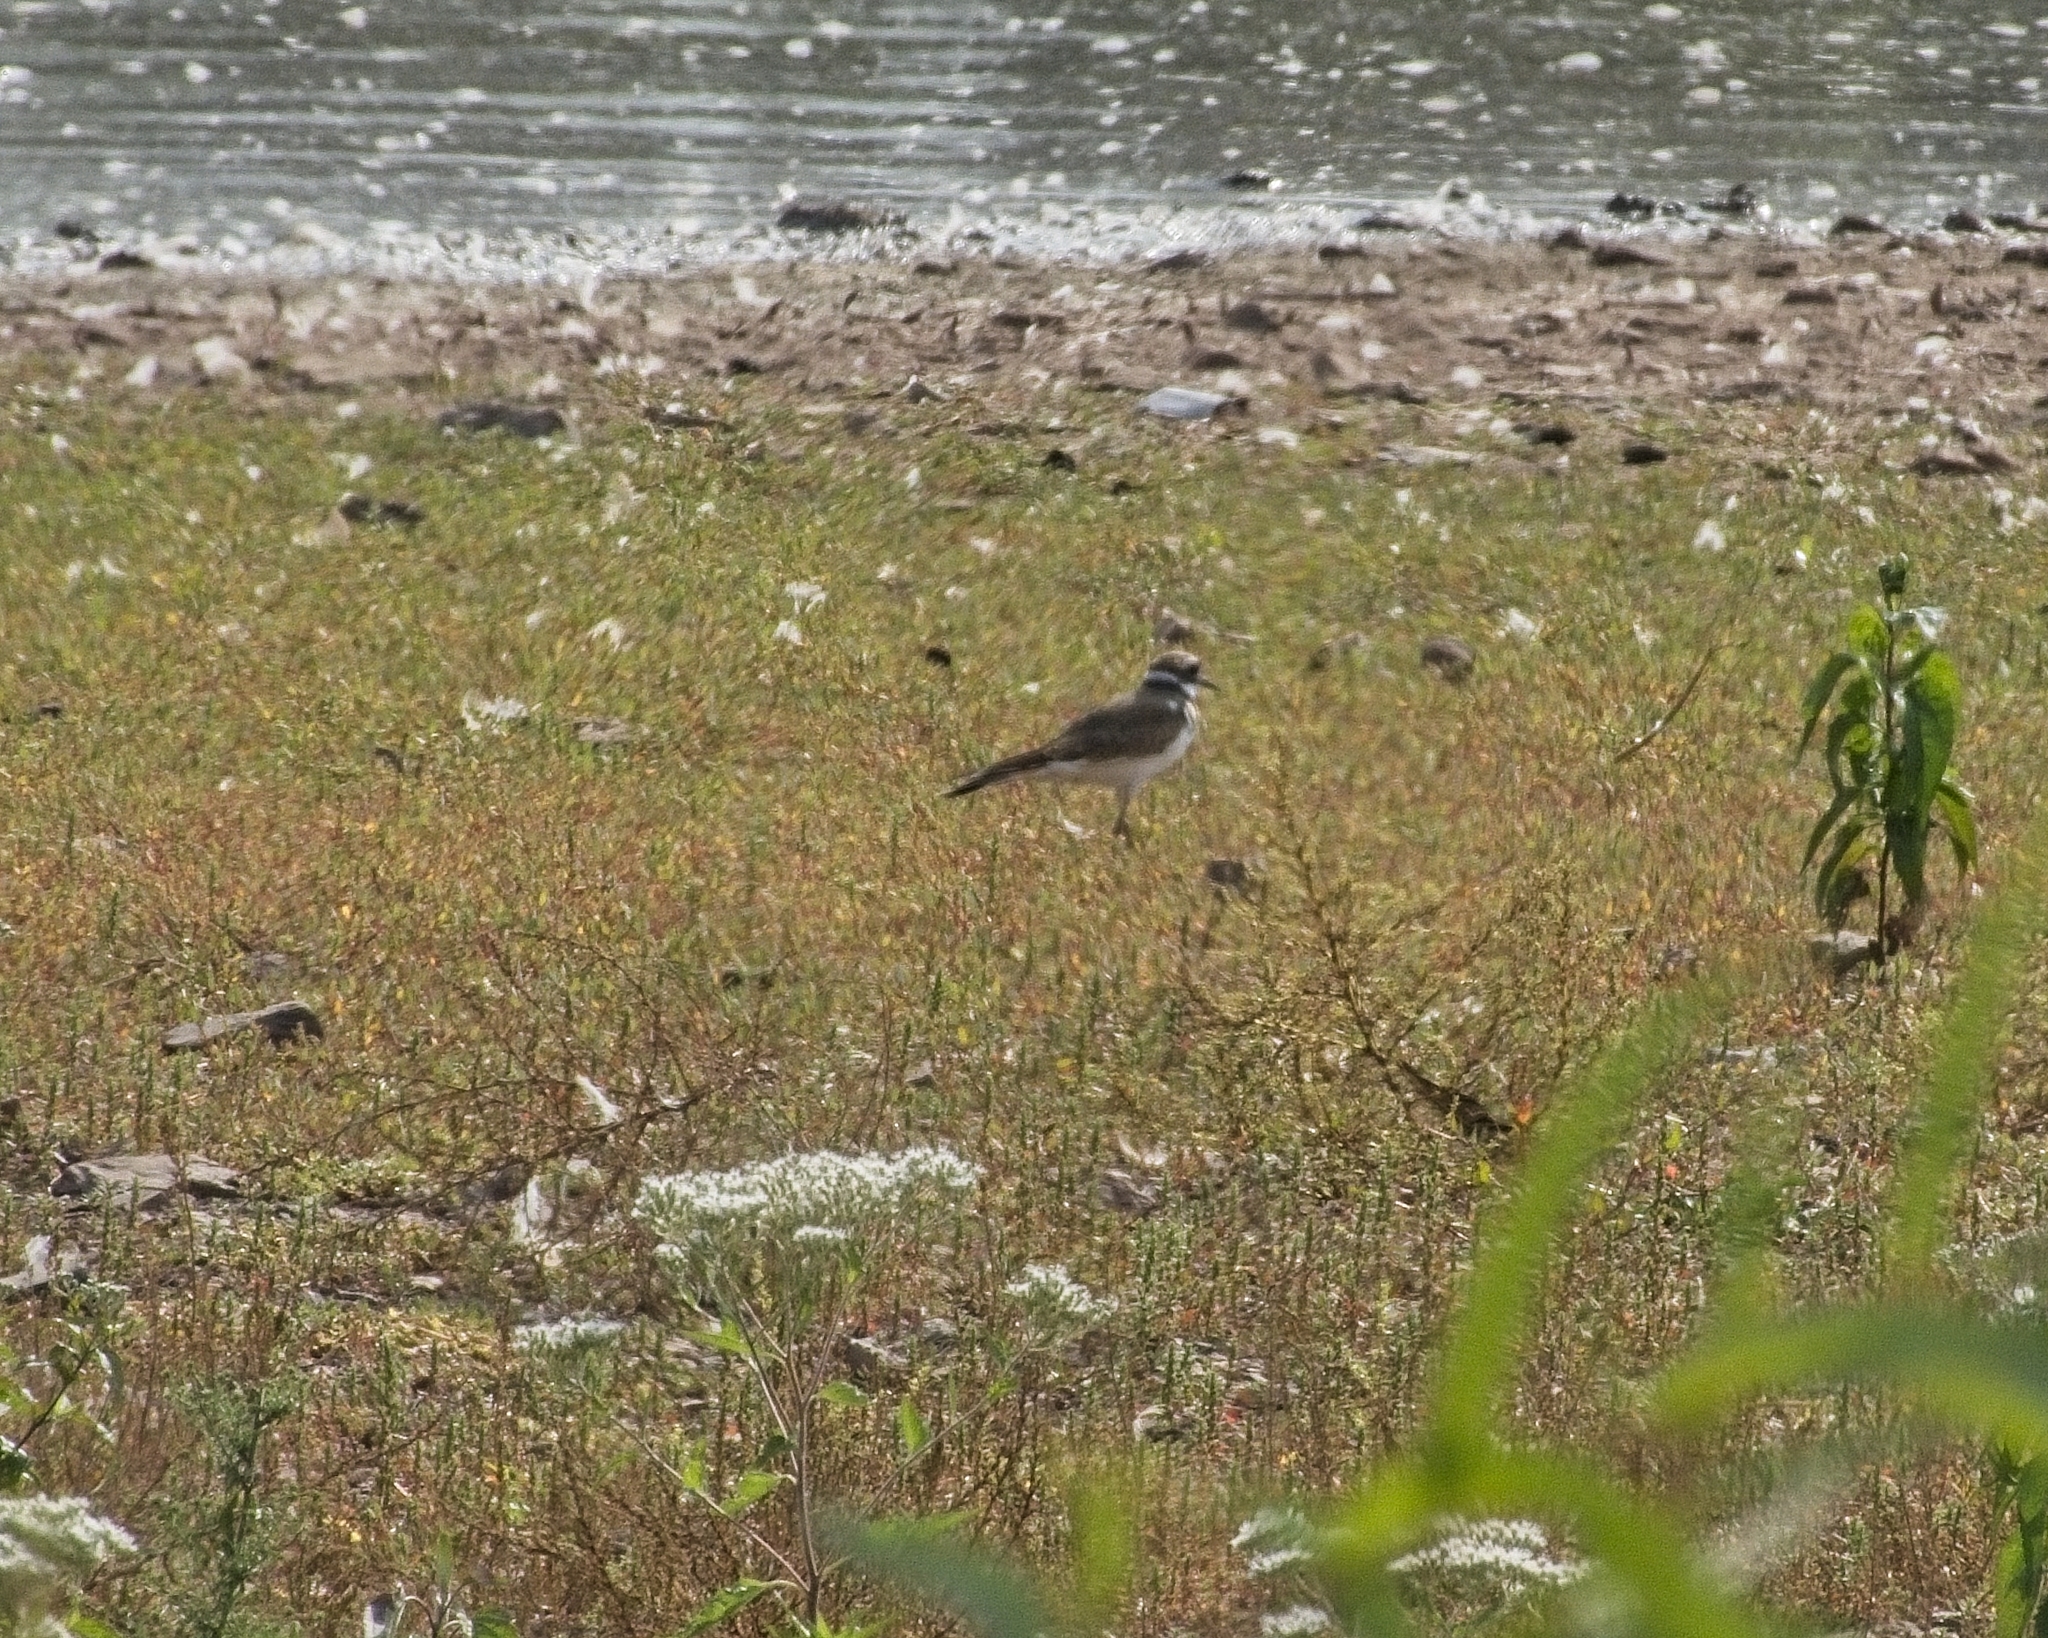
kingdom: Animalia
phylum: Chordata
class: Aves
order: Charadriiformes
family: Charadriidae
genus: Charadrius
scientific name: Charadrius vociferus
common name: Killdeer
